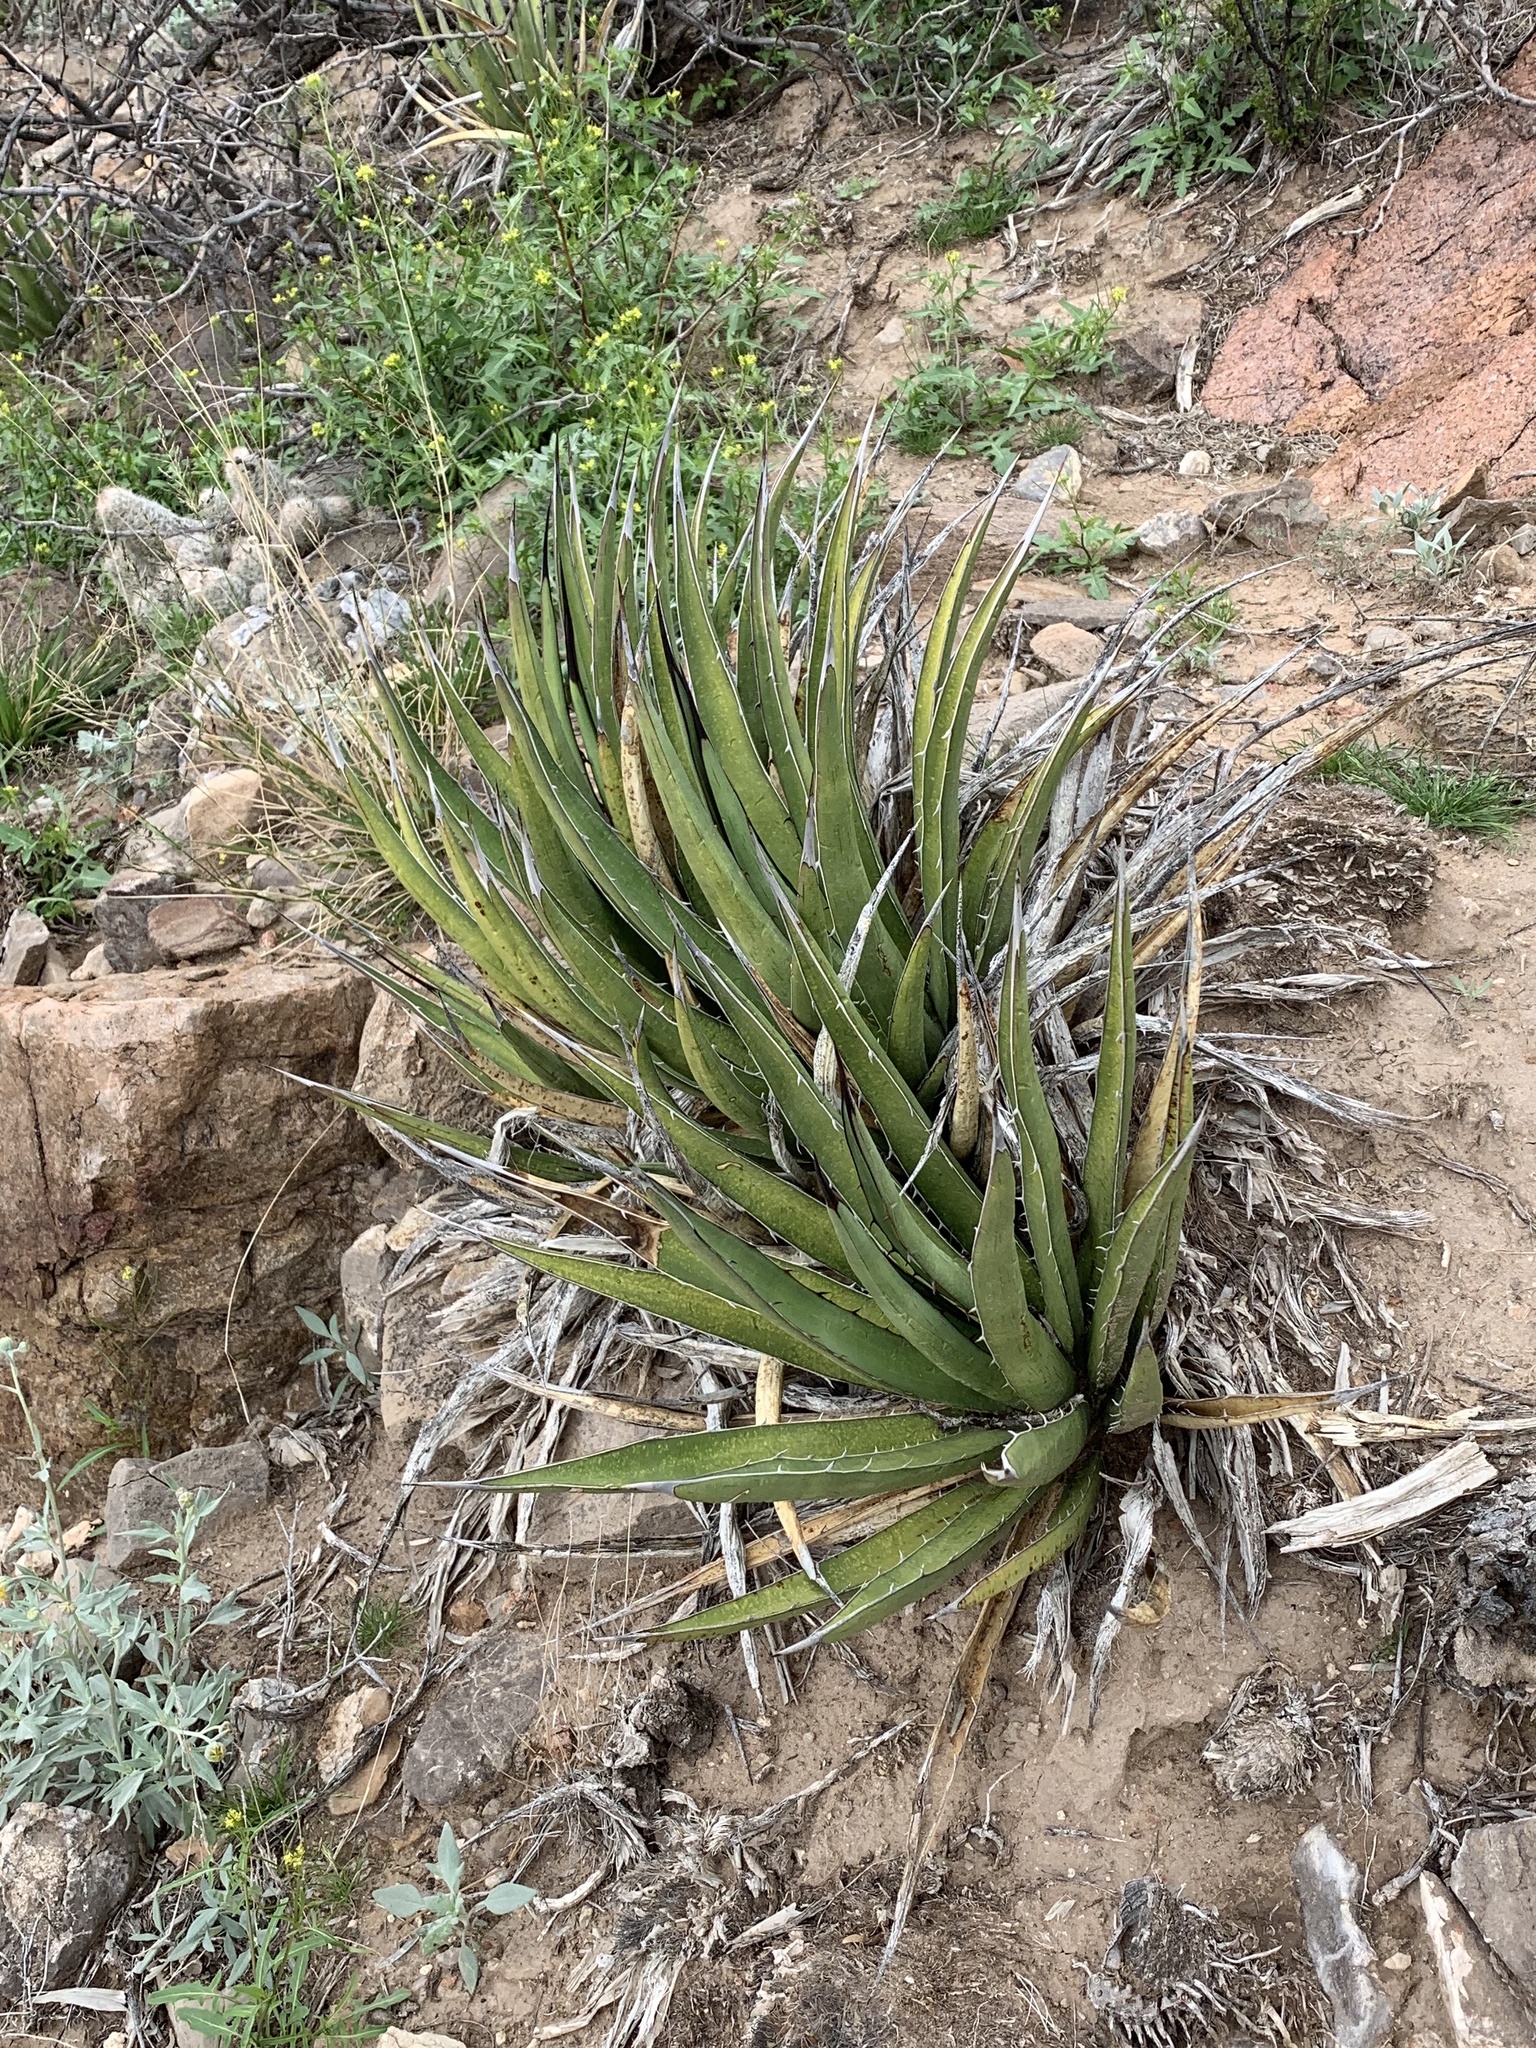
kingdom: Plantae
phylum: Tracheophyta
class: Liliopsida
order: Asparagales
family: Asparagaceae
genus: Agave
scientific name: Agave lechuguilla
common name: Lecheguilla agave
